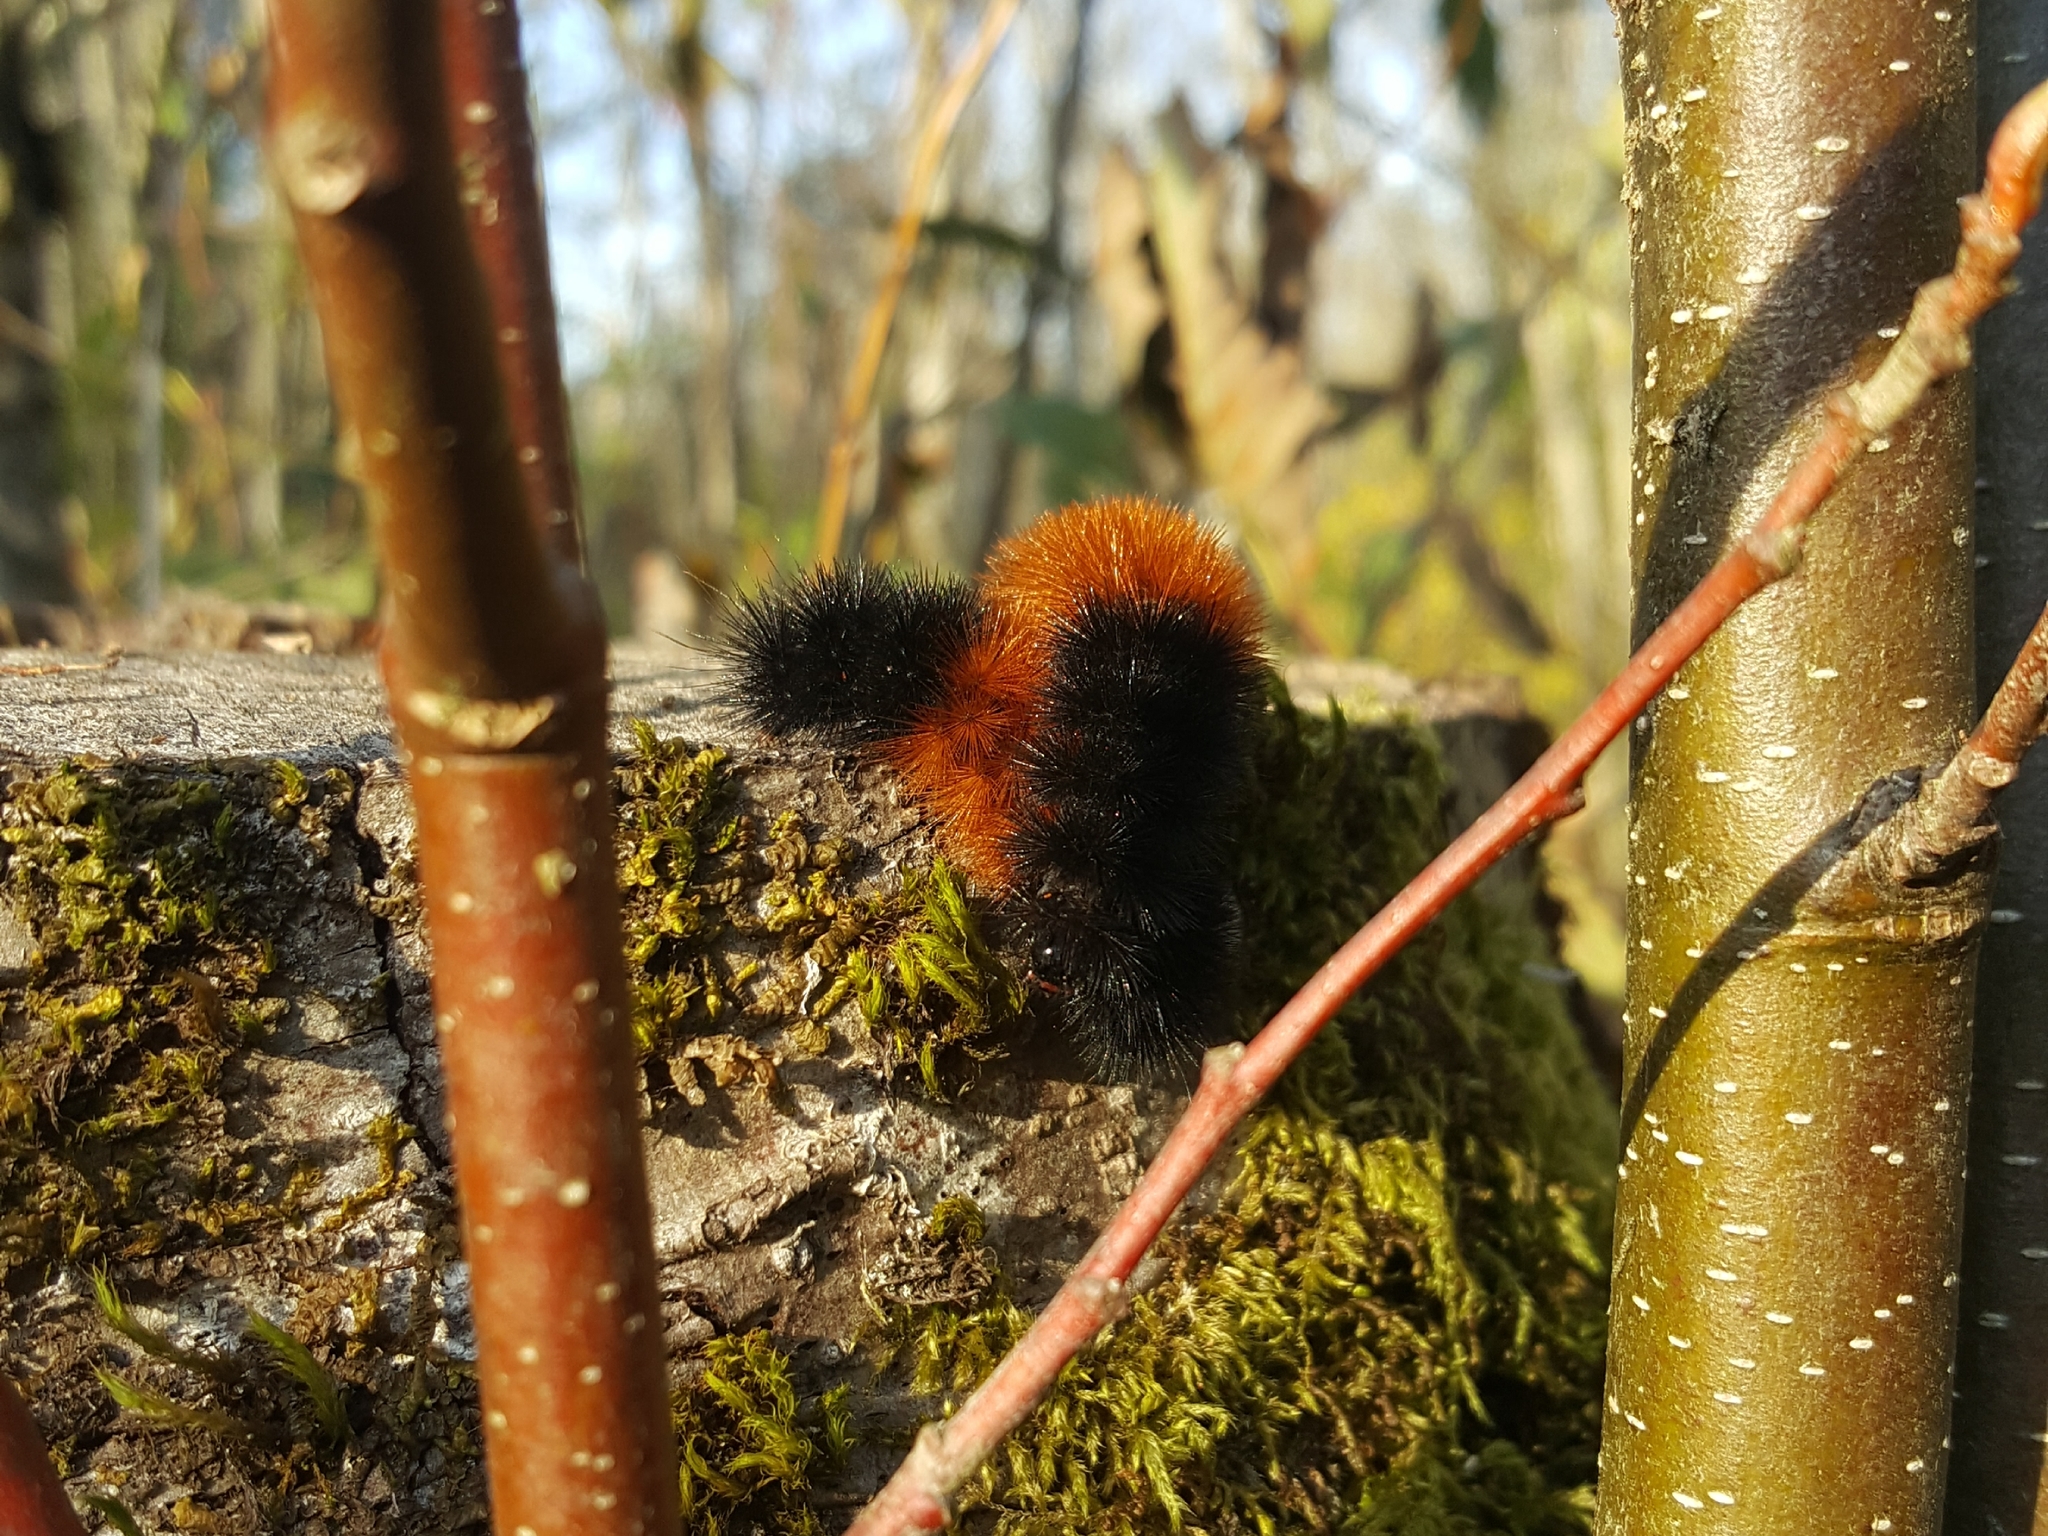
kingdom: Animalia
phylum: Arthropoda
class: Insecta
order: Lepidoptera
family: Erebidae
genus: Pyrrharctia
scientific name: Pyrrharctia isabella
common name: Isabella tiger moth
